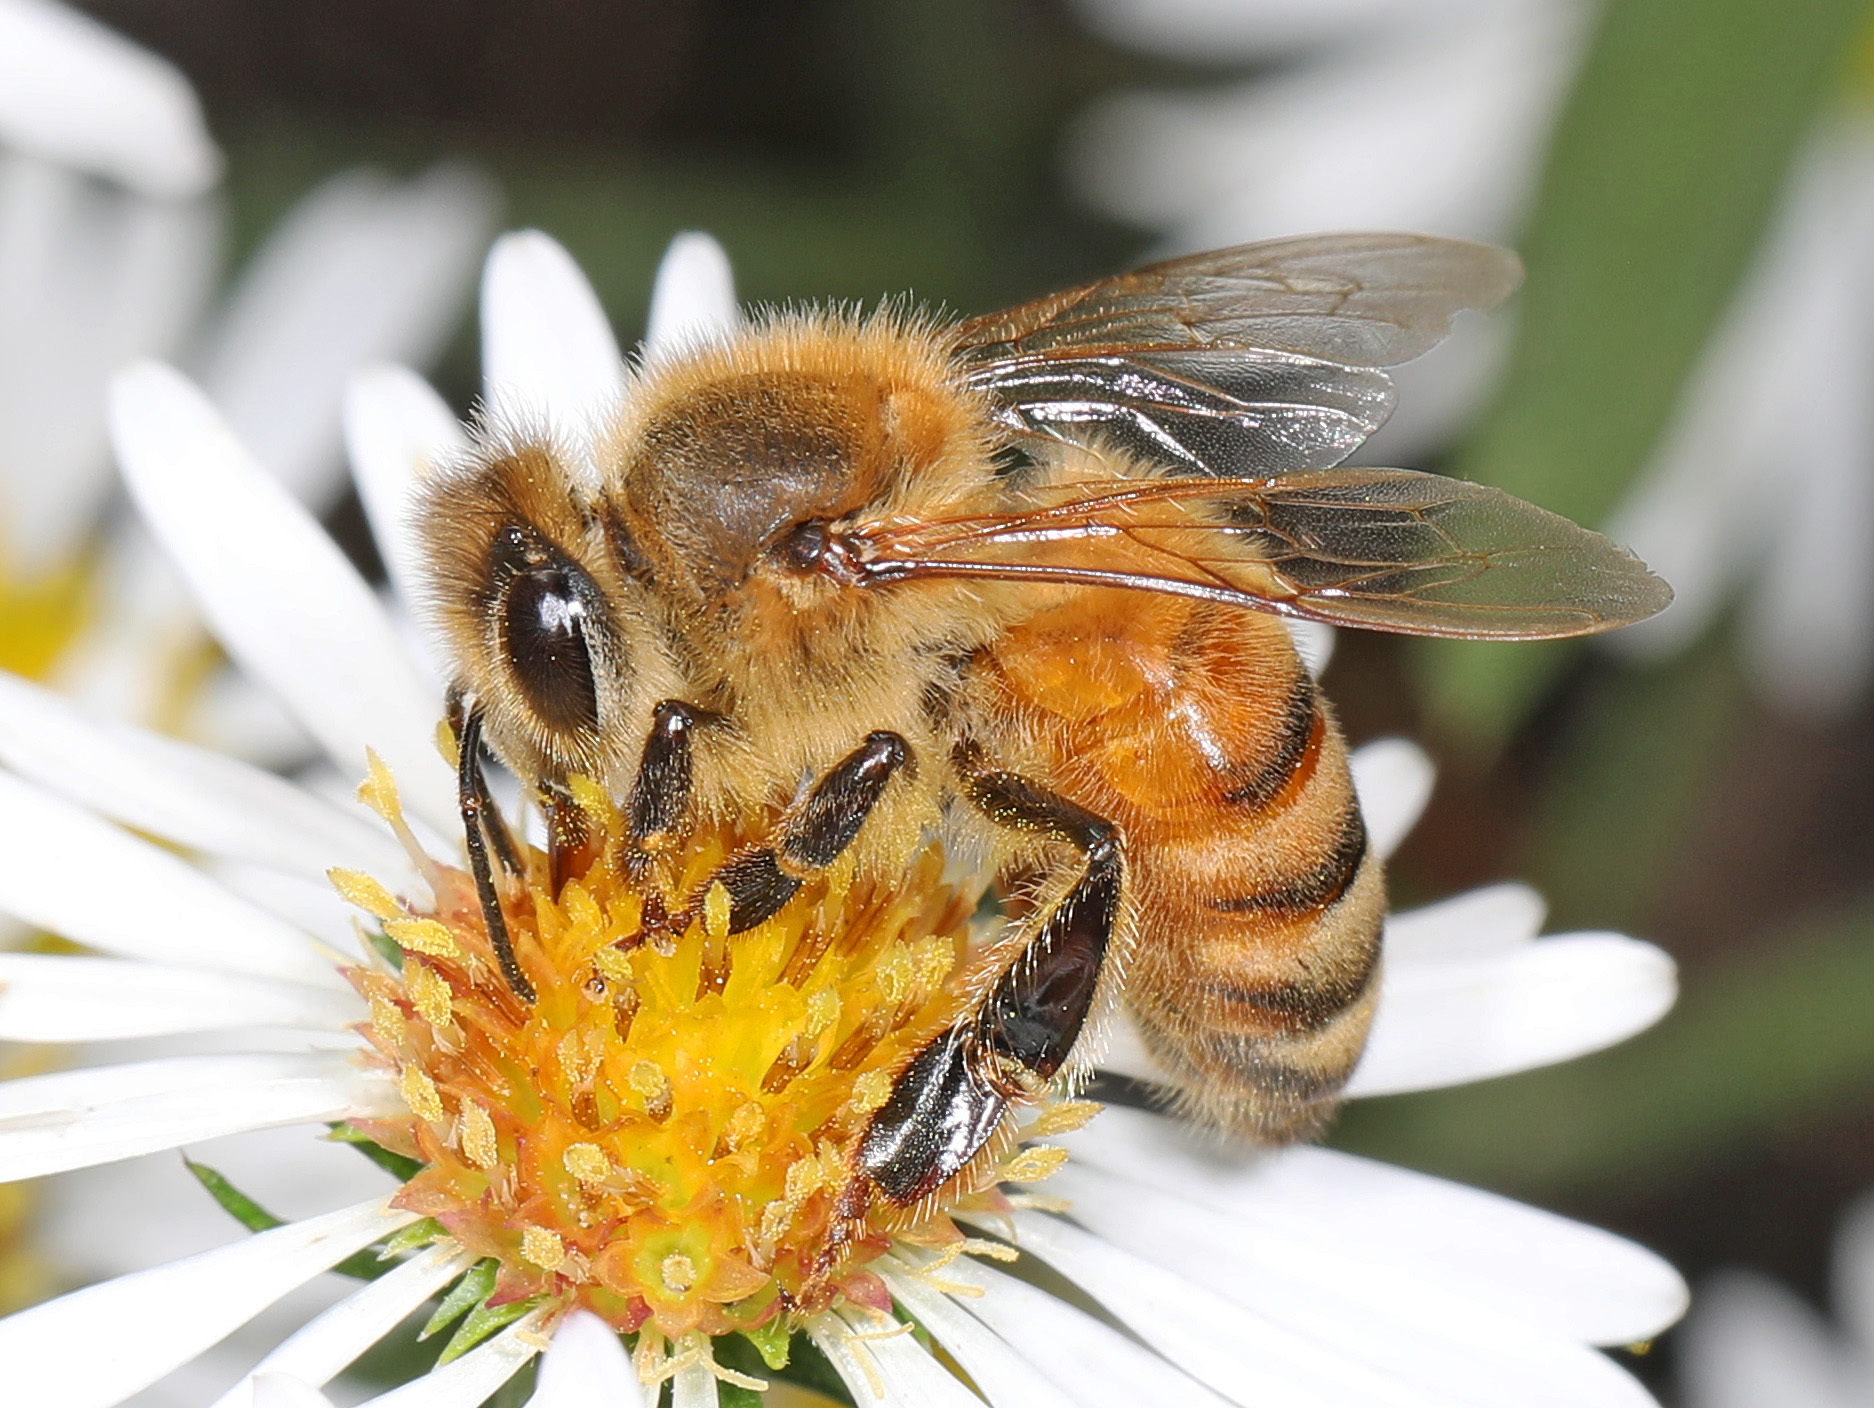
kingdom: Animalia
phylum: Arthropoda
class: Insecta
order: Hymenoptera
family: Apidae
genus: Apis
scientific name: Apis mellifera
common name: Honey bee
